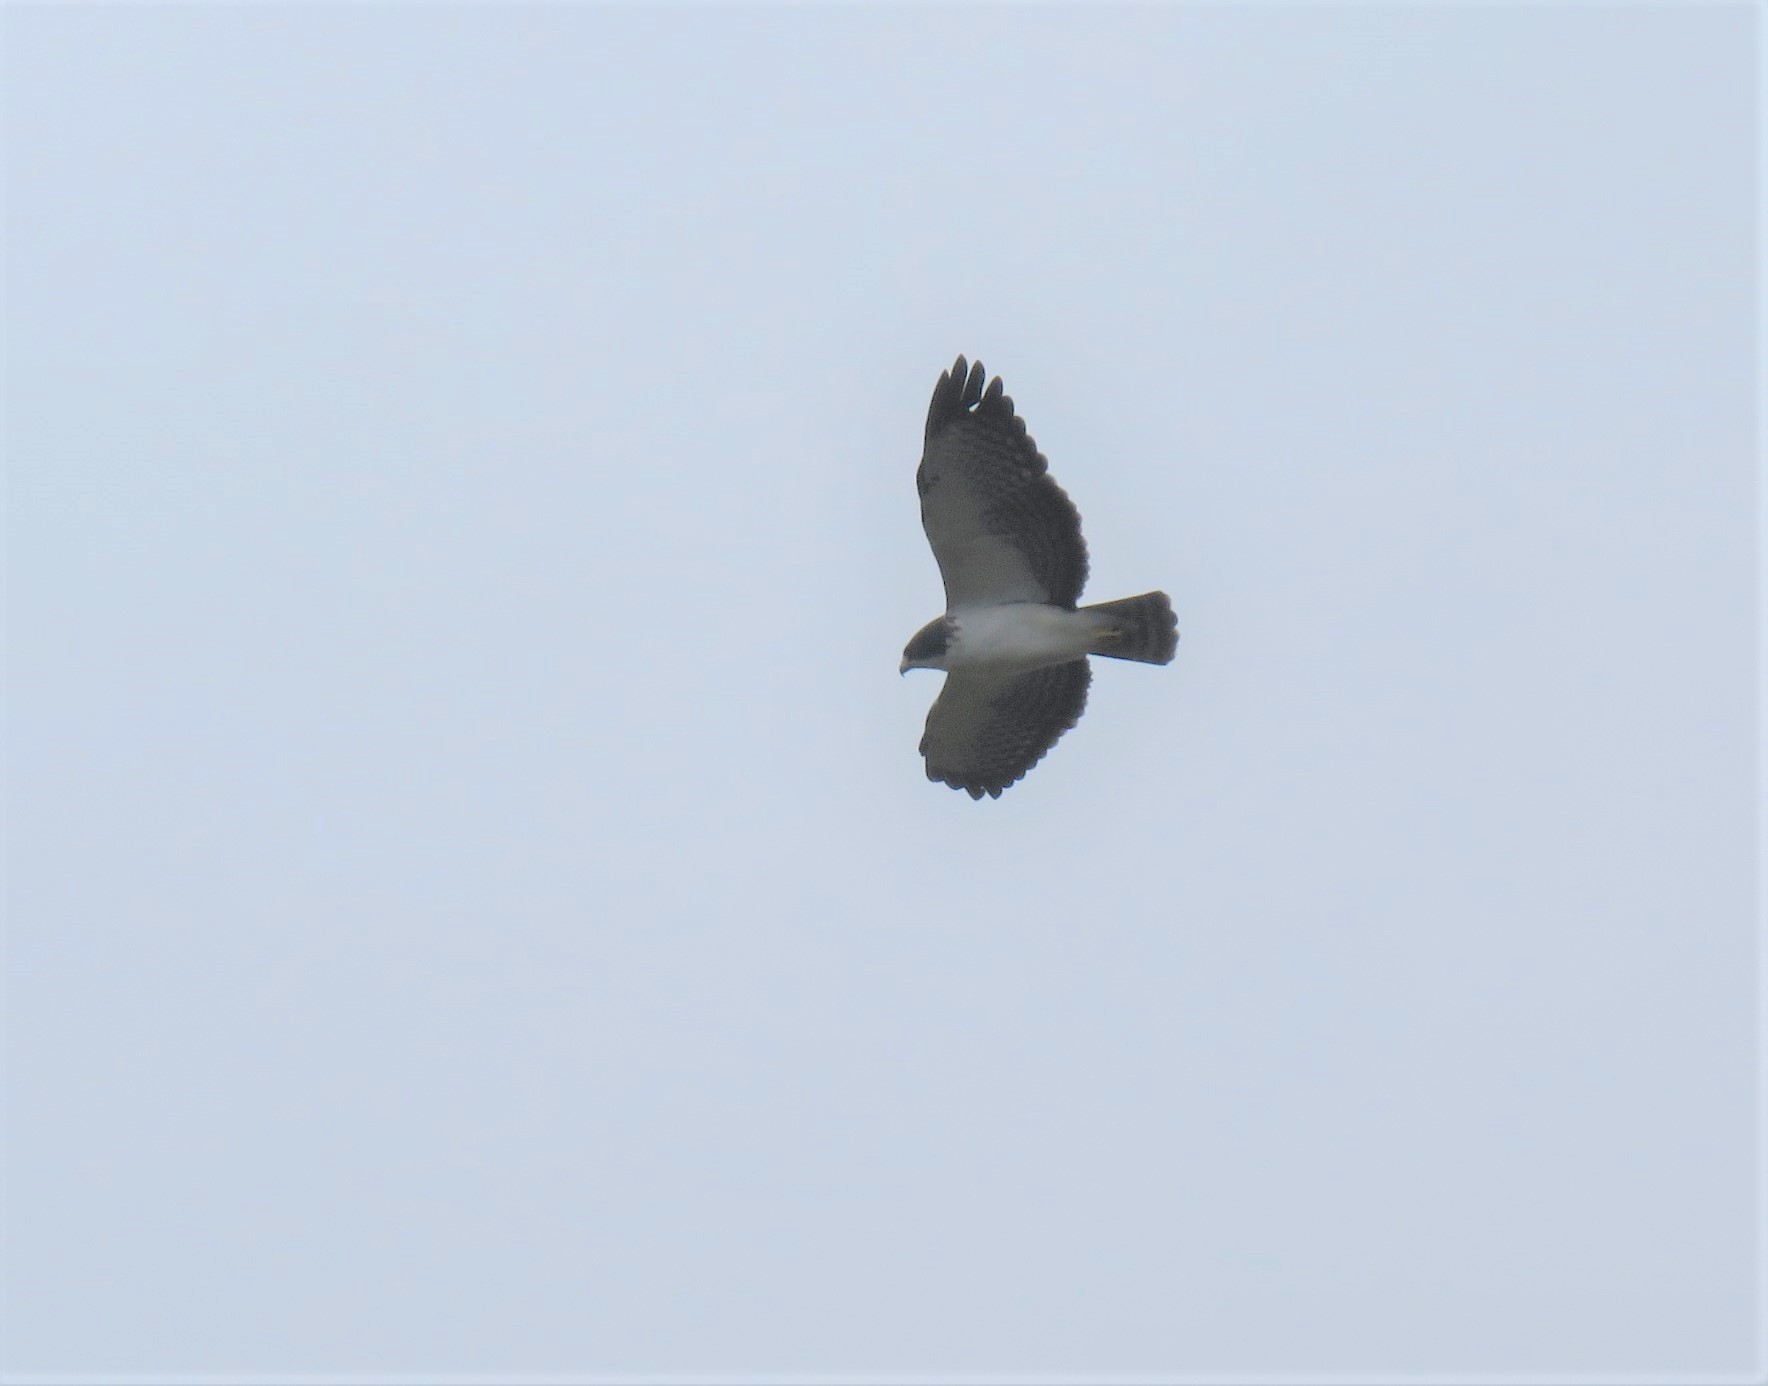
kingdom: Animalia
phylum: Chordata
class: Aves
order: Accipitriformes
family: Accipitridae
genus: Buteo
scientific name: Buteo brachyurus
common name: Short-tailed hawk
